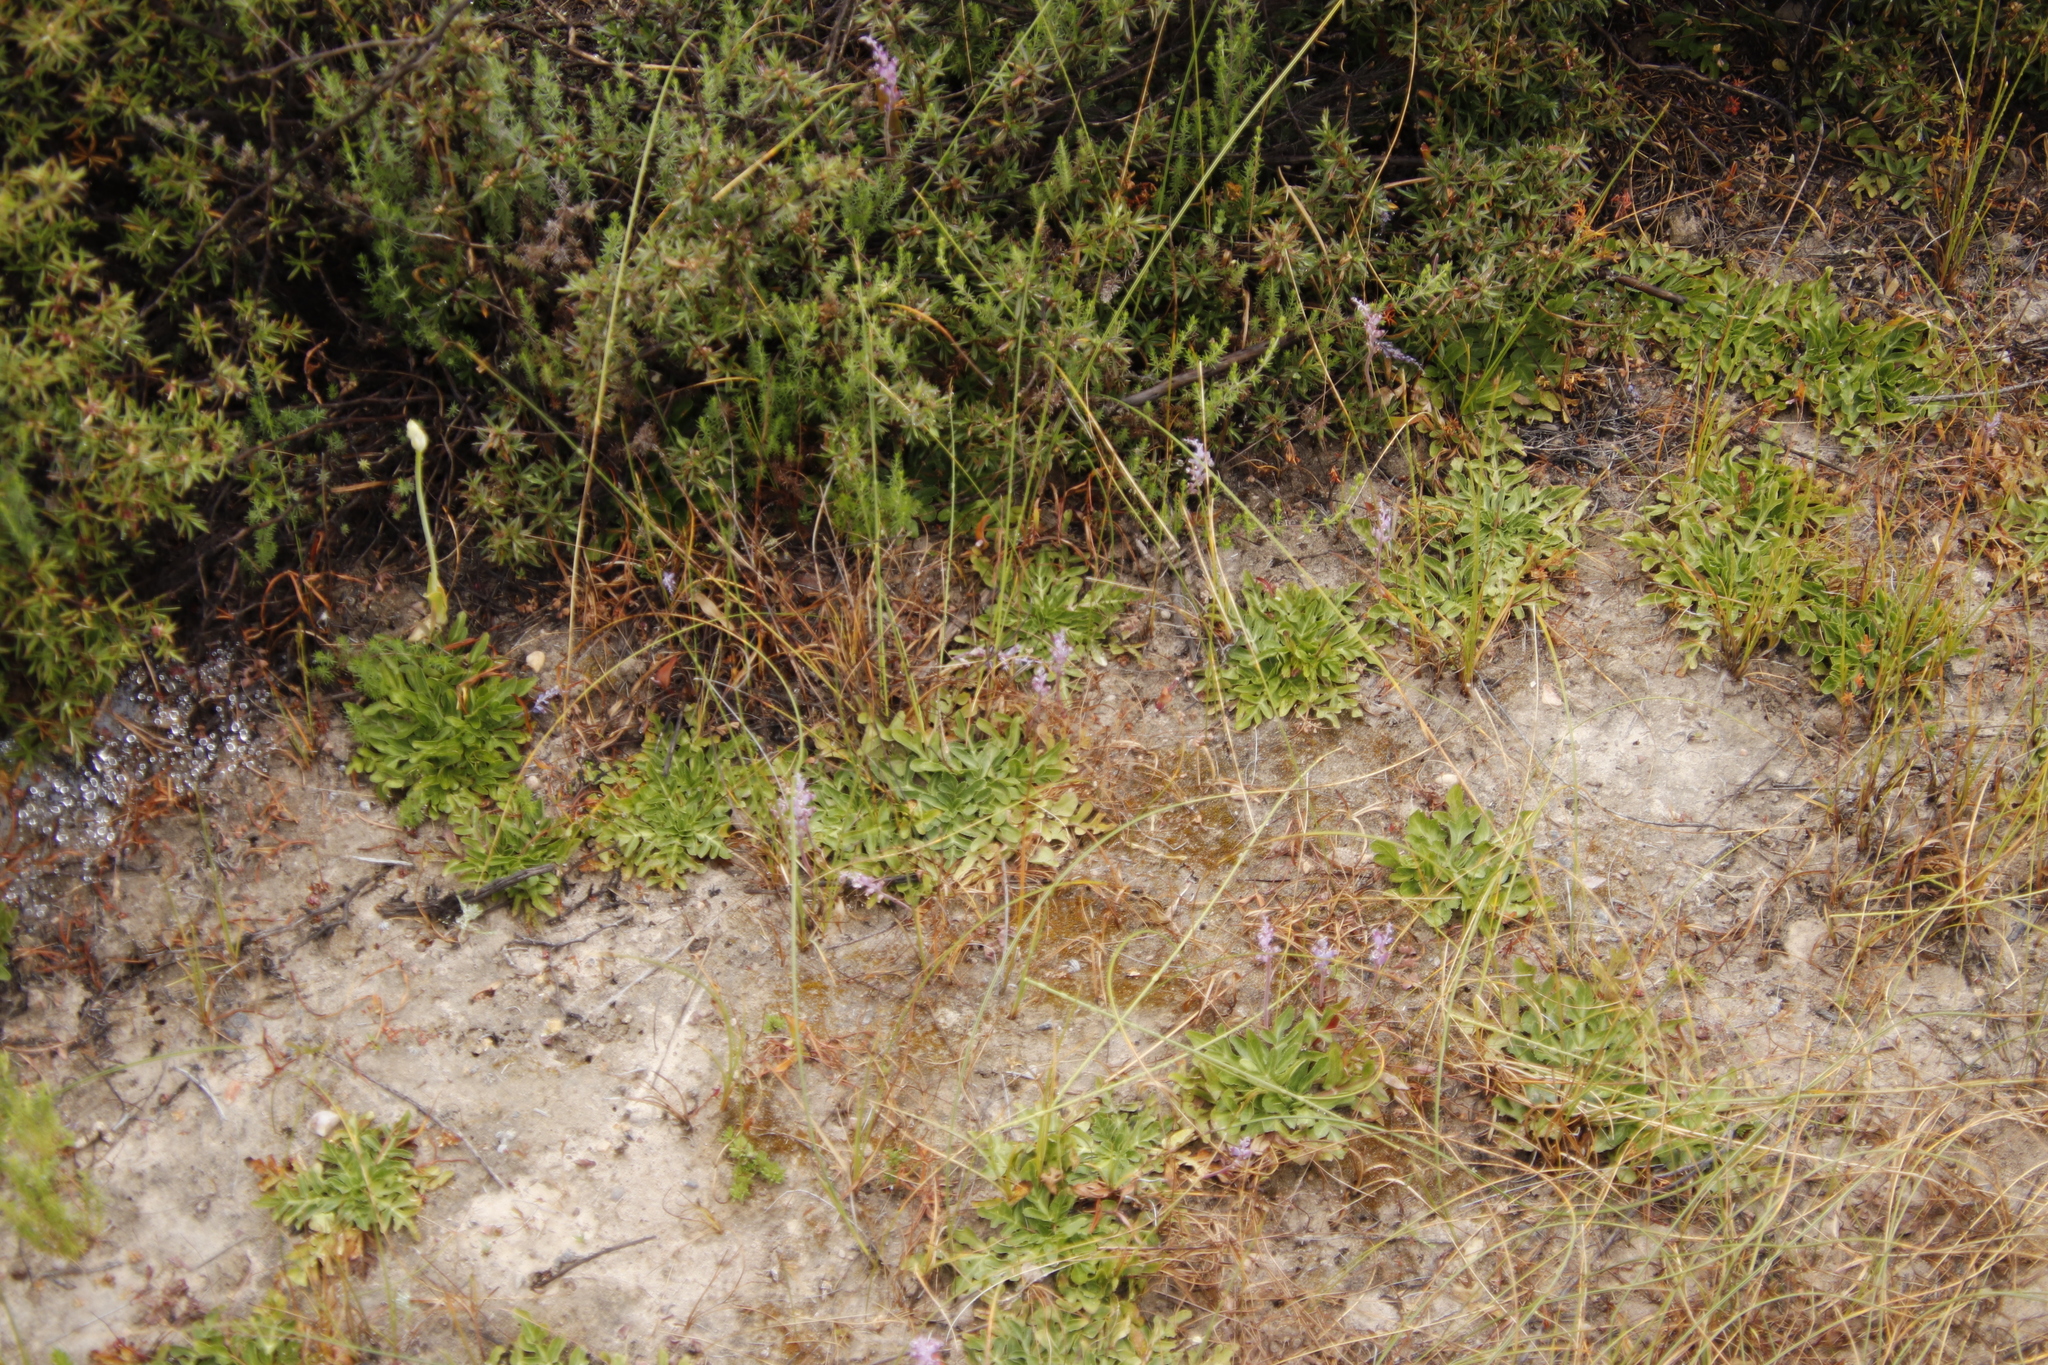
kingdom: Plantae
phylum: Tracheophyta
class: Liliopsida
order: Asparagales
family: Asparagaceae
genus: Lachenalia
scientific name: Lachenalia suaveolens
